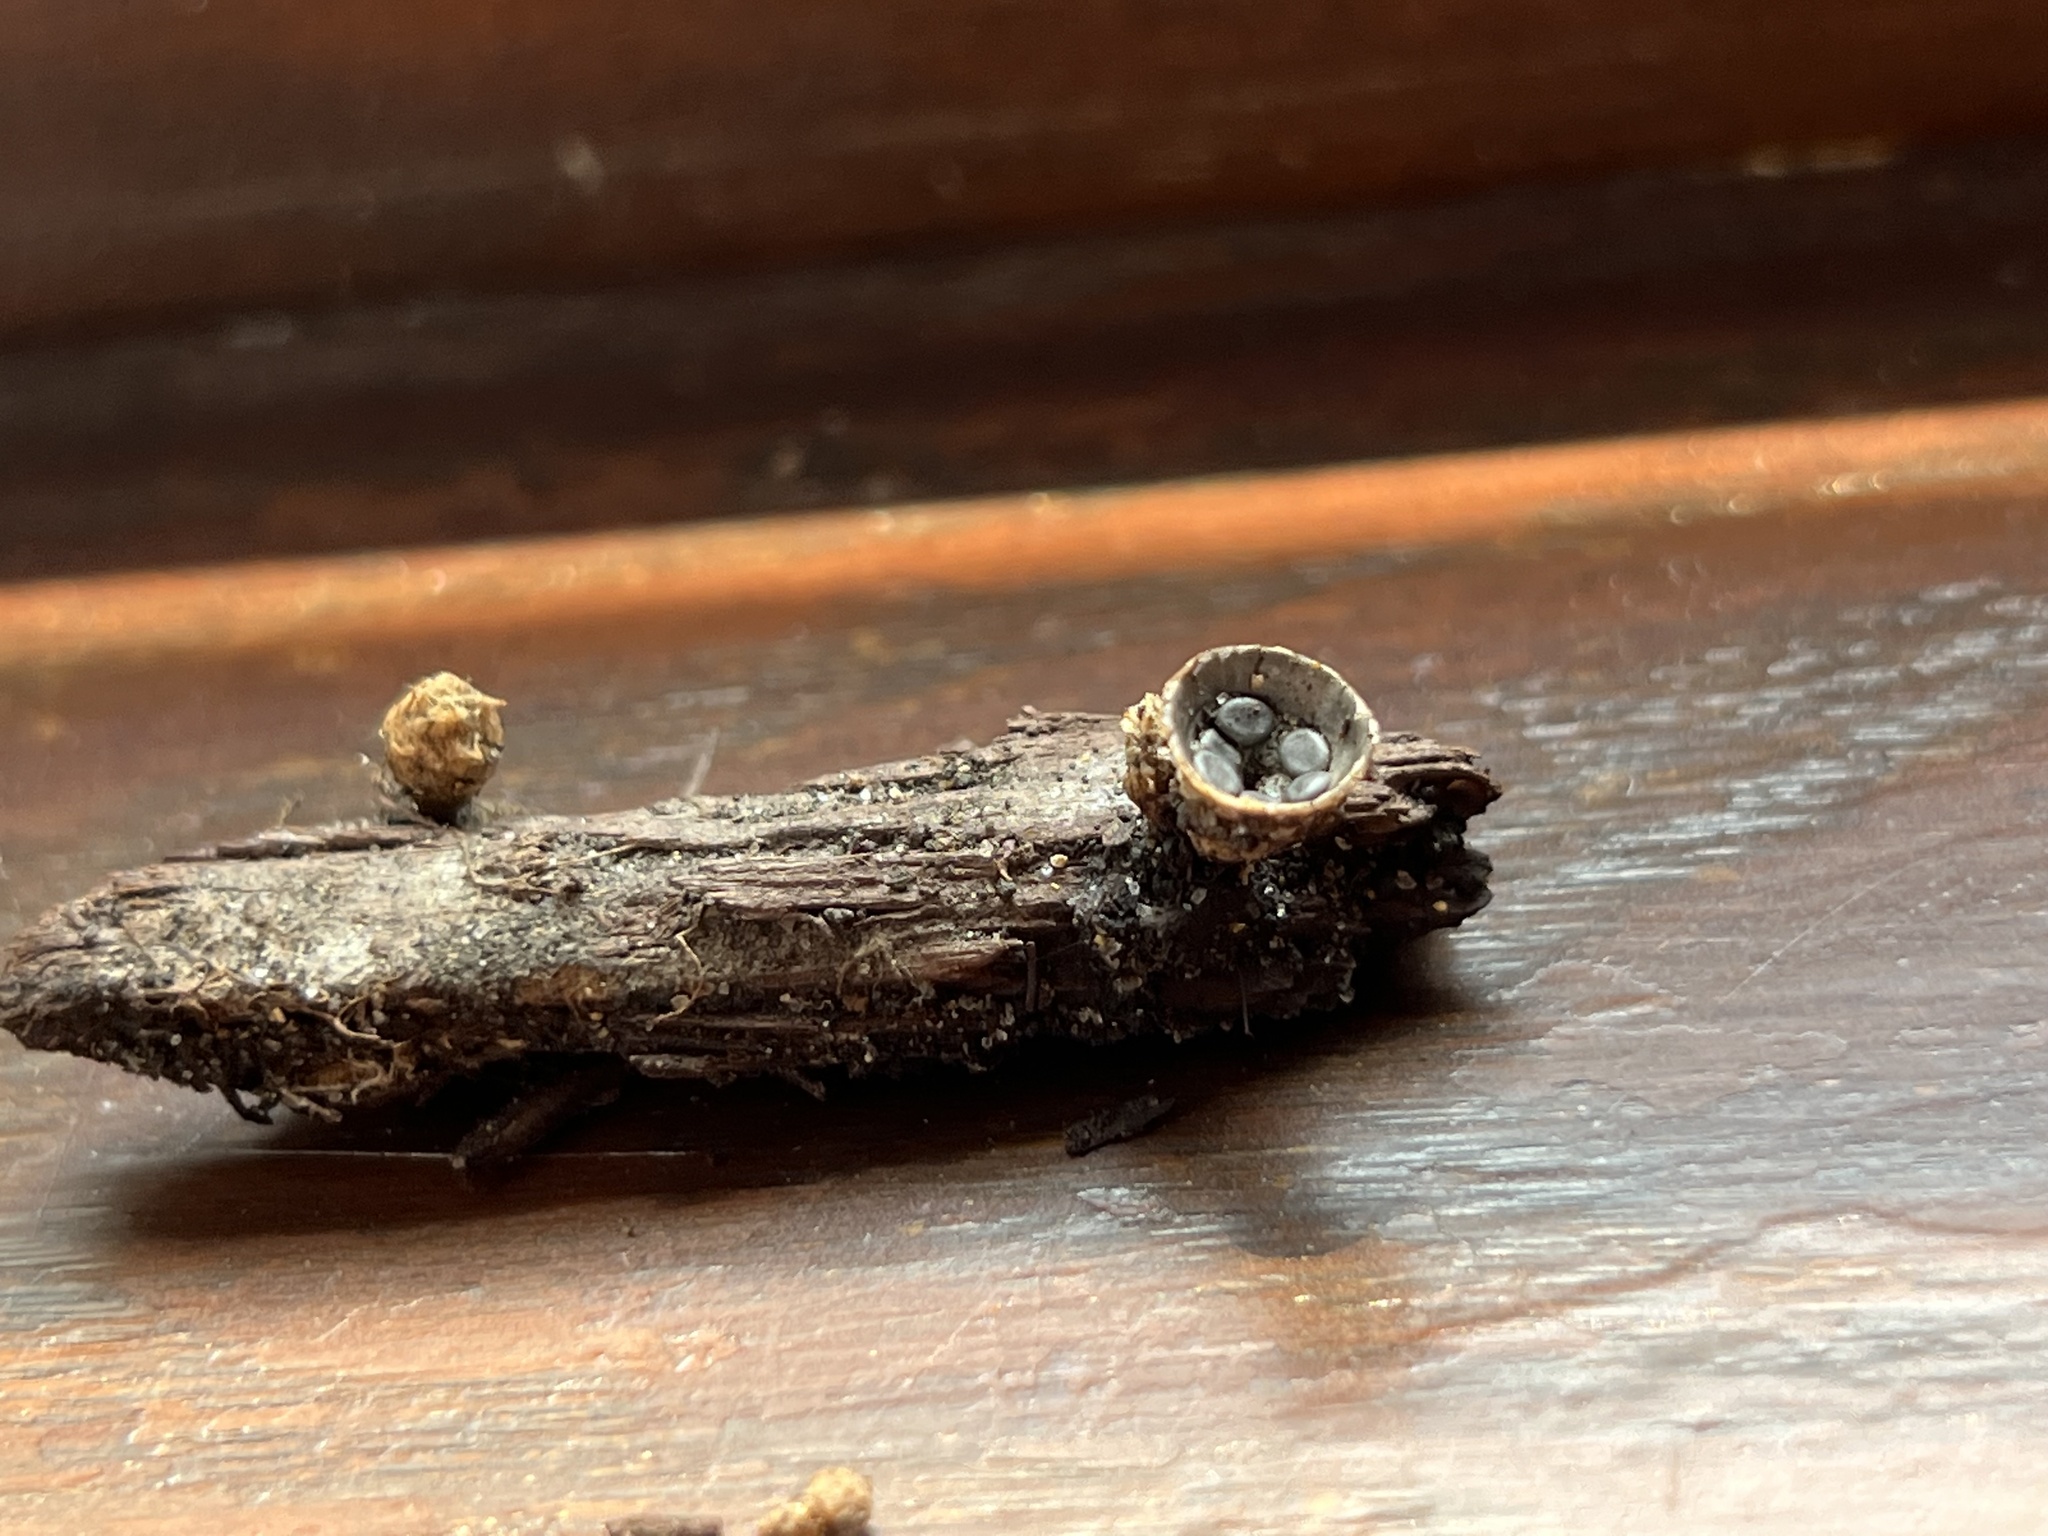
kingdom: Fungi
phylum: Basidiomycota
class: Agaricomycetes
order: Agaricales
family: Agaricaceae
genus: Cyathus
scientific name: Cyathus striatus
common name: Fluted bird's nest
